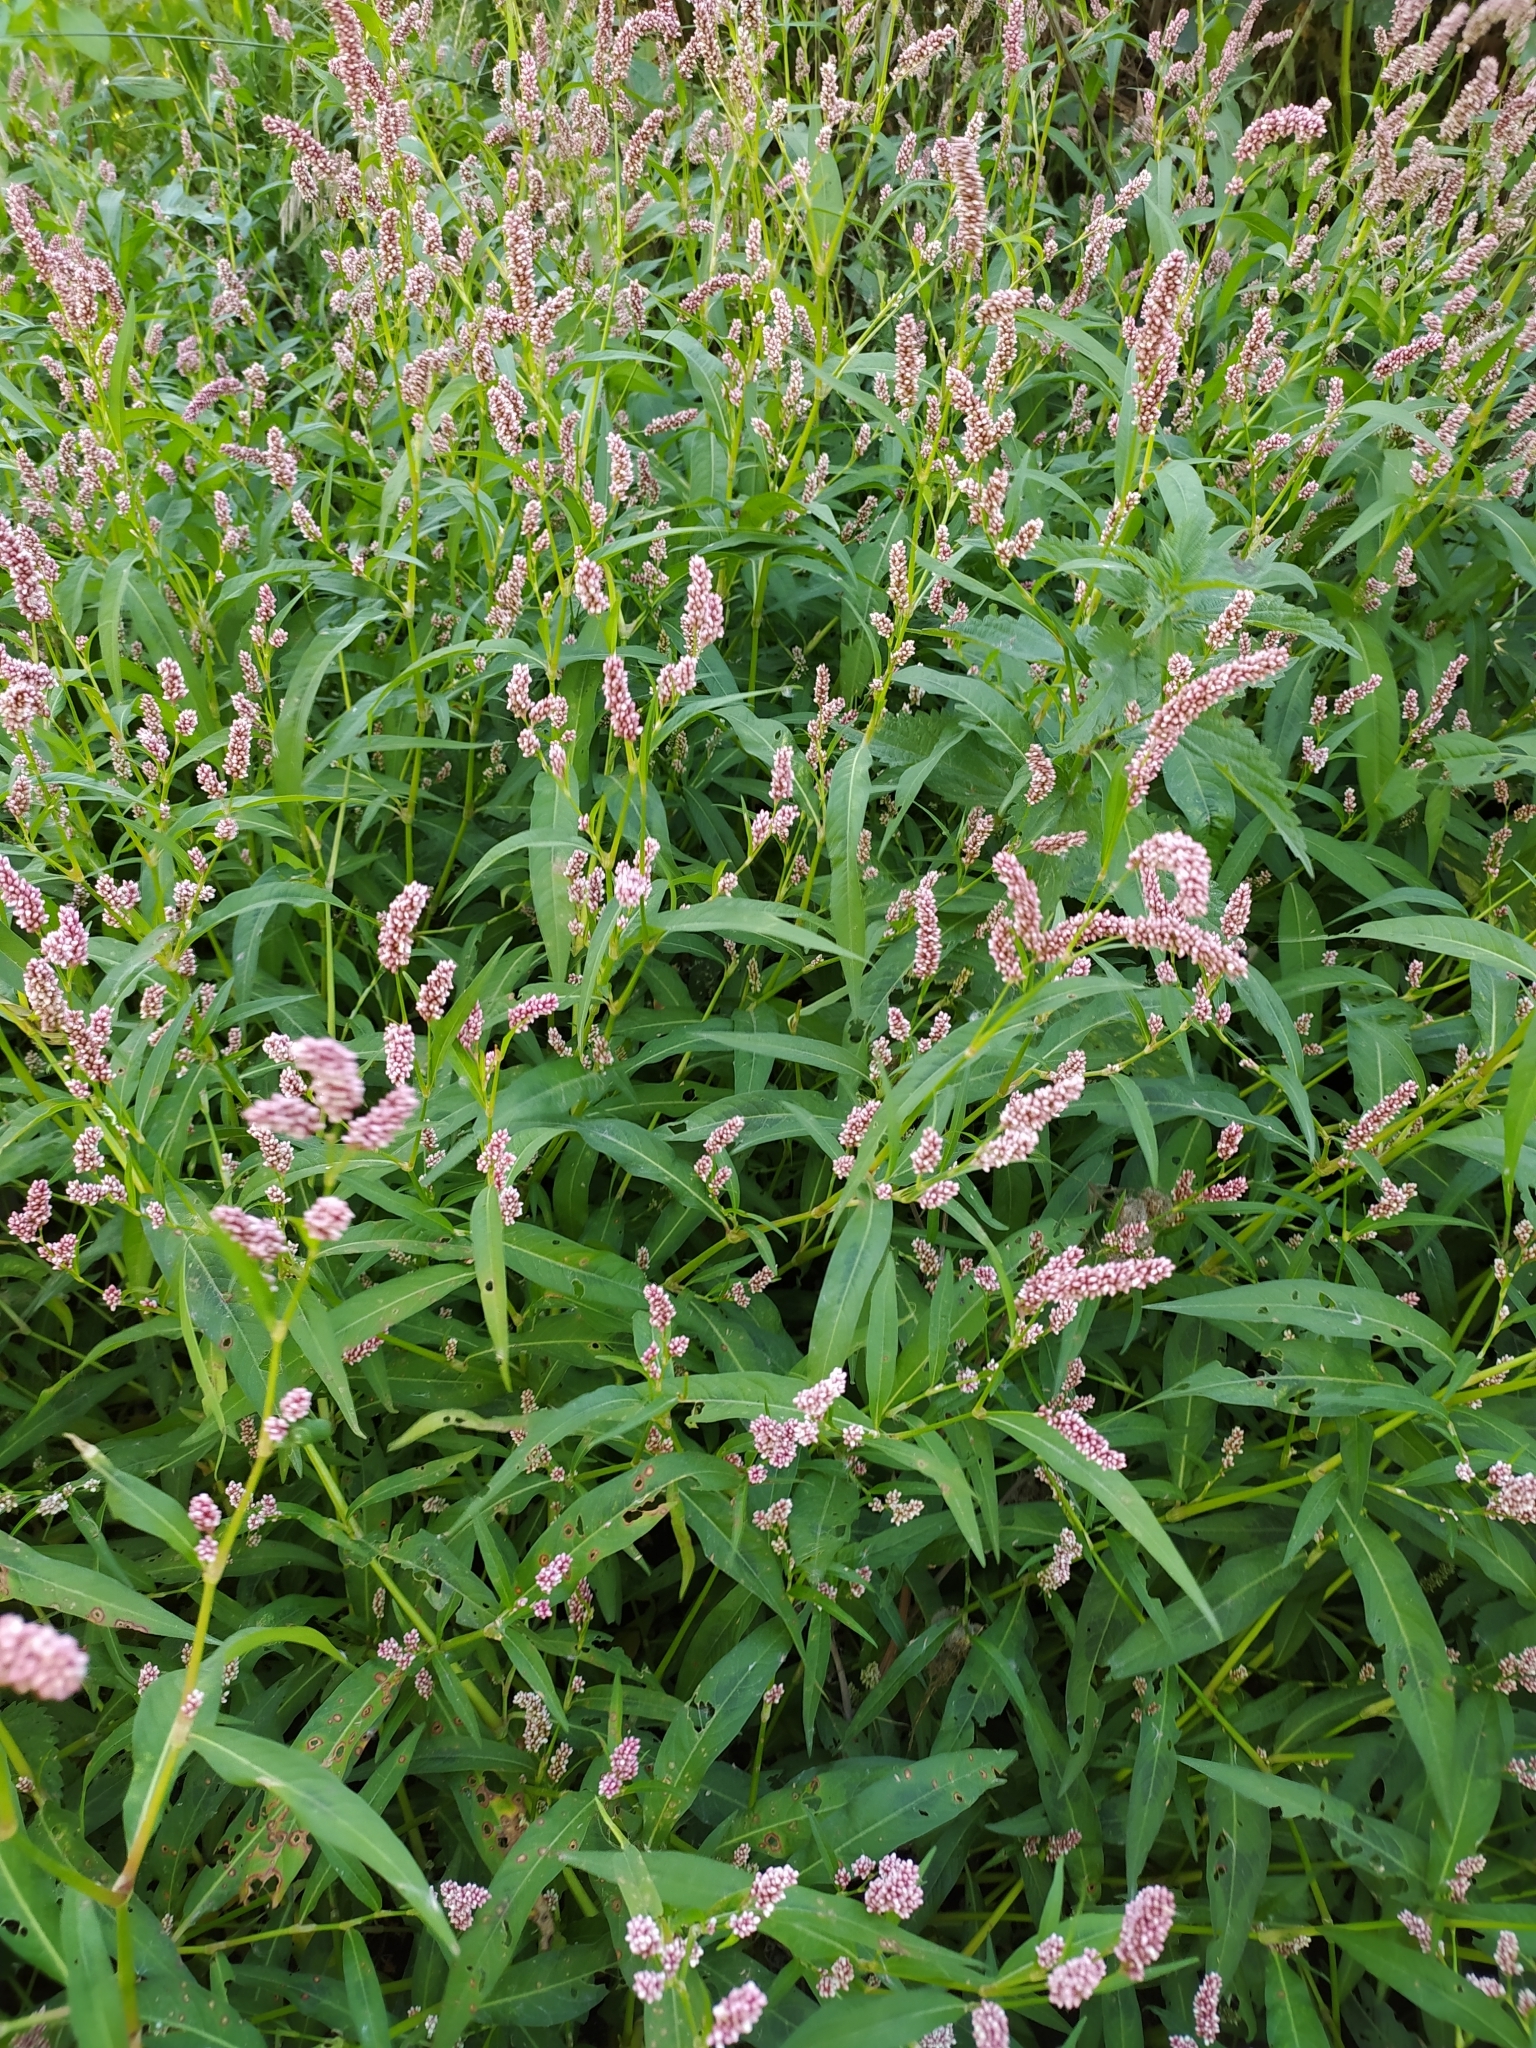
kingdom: Plantae
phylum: Tracheophyta
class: Magnoliopsida
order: Caryophyllales
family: Polygonaceae
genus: Persicaria
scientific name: Persicaria lapathifolia
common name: Curlytop knotweed
